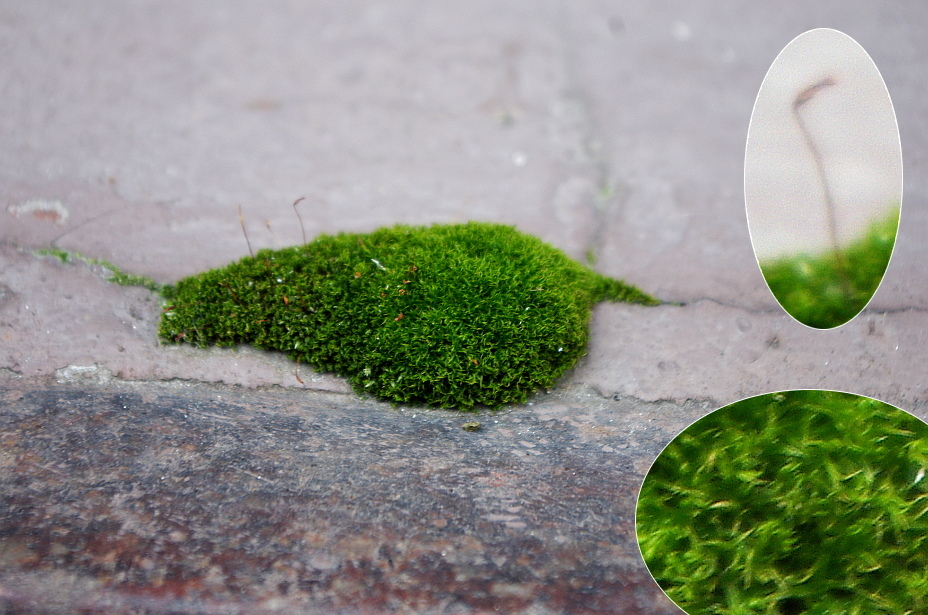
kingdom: Plantae
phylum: Bryophyta
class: Bryopsida
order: Dicranales
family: Ditrichaceae
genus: Ceratodon
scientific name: Ceratodon purpureus
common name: Redshank
